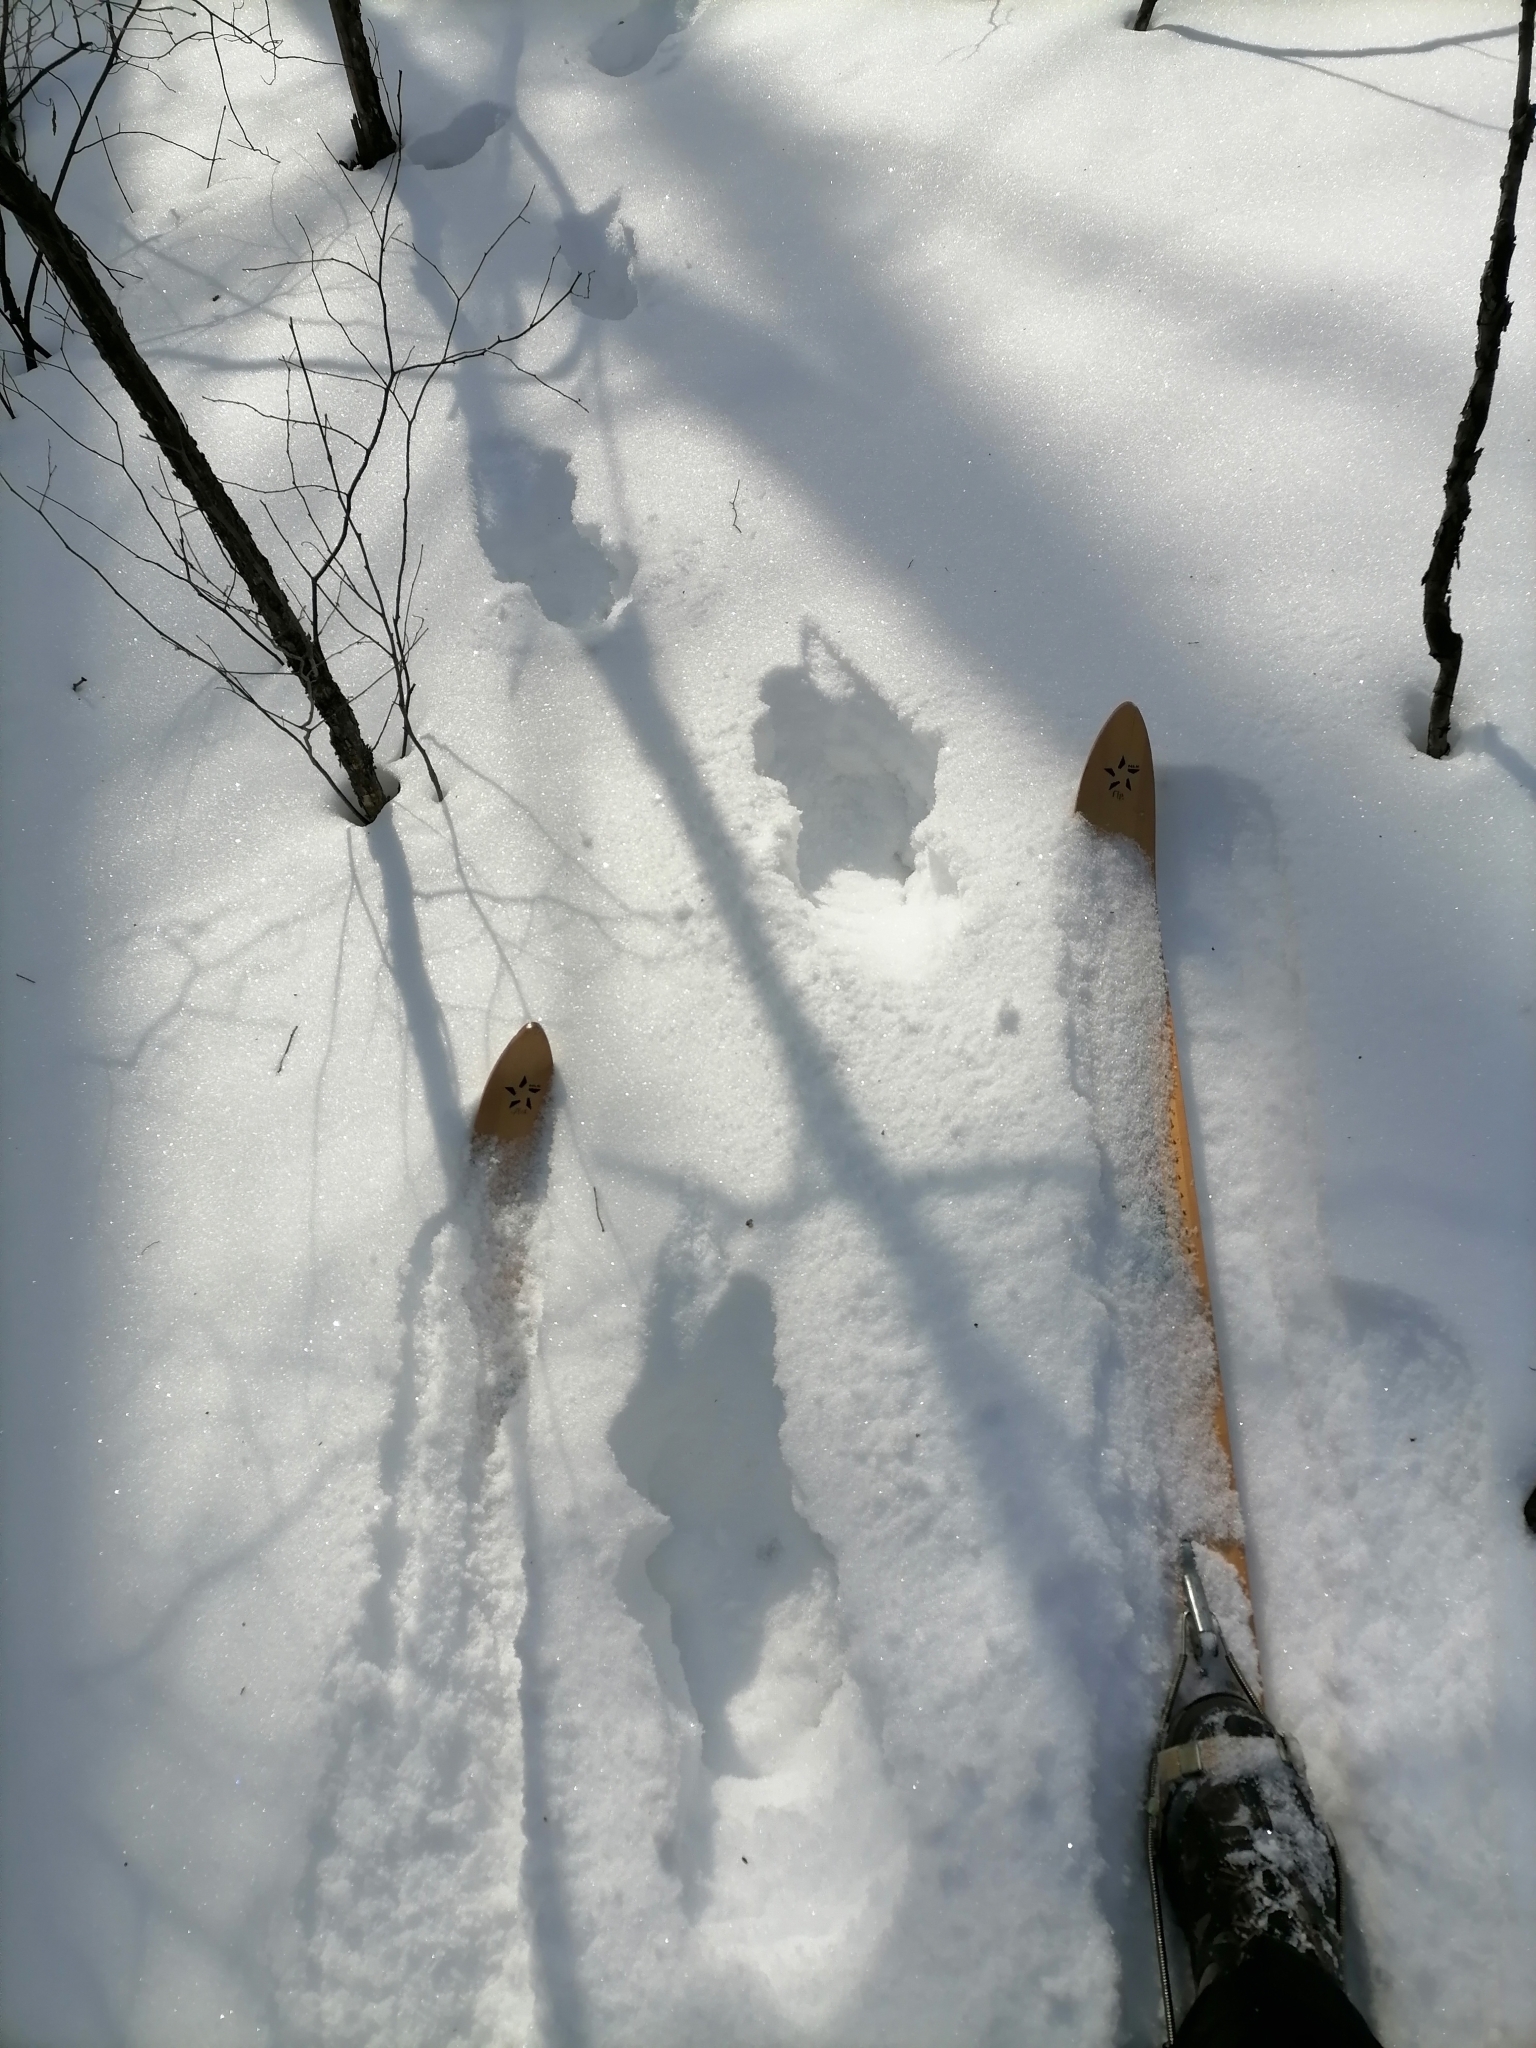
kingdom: Animalia
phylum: Chordata
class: Mammalia
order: Artiodactyla
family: Cervidae
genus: Alces
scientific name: Alces alces
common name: Moose
